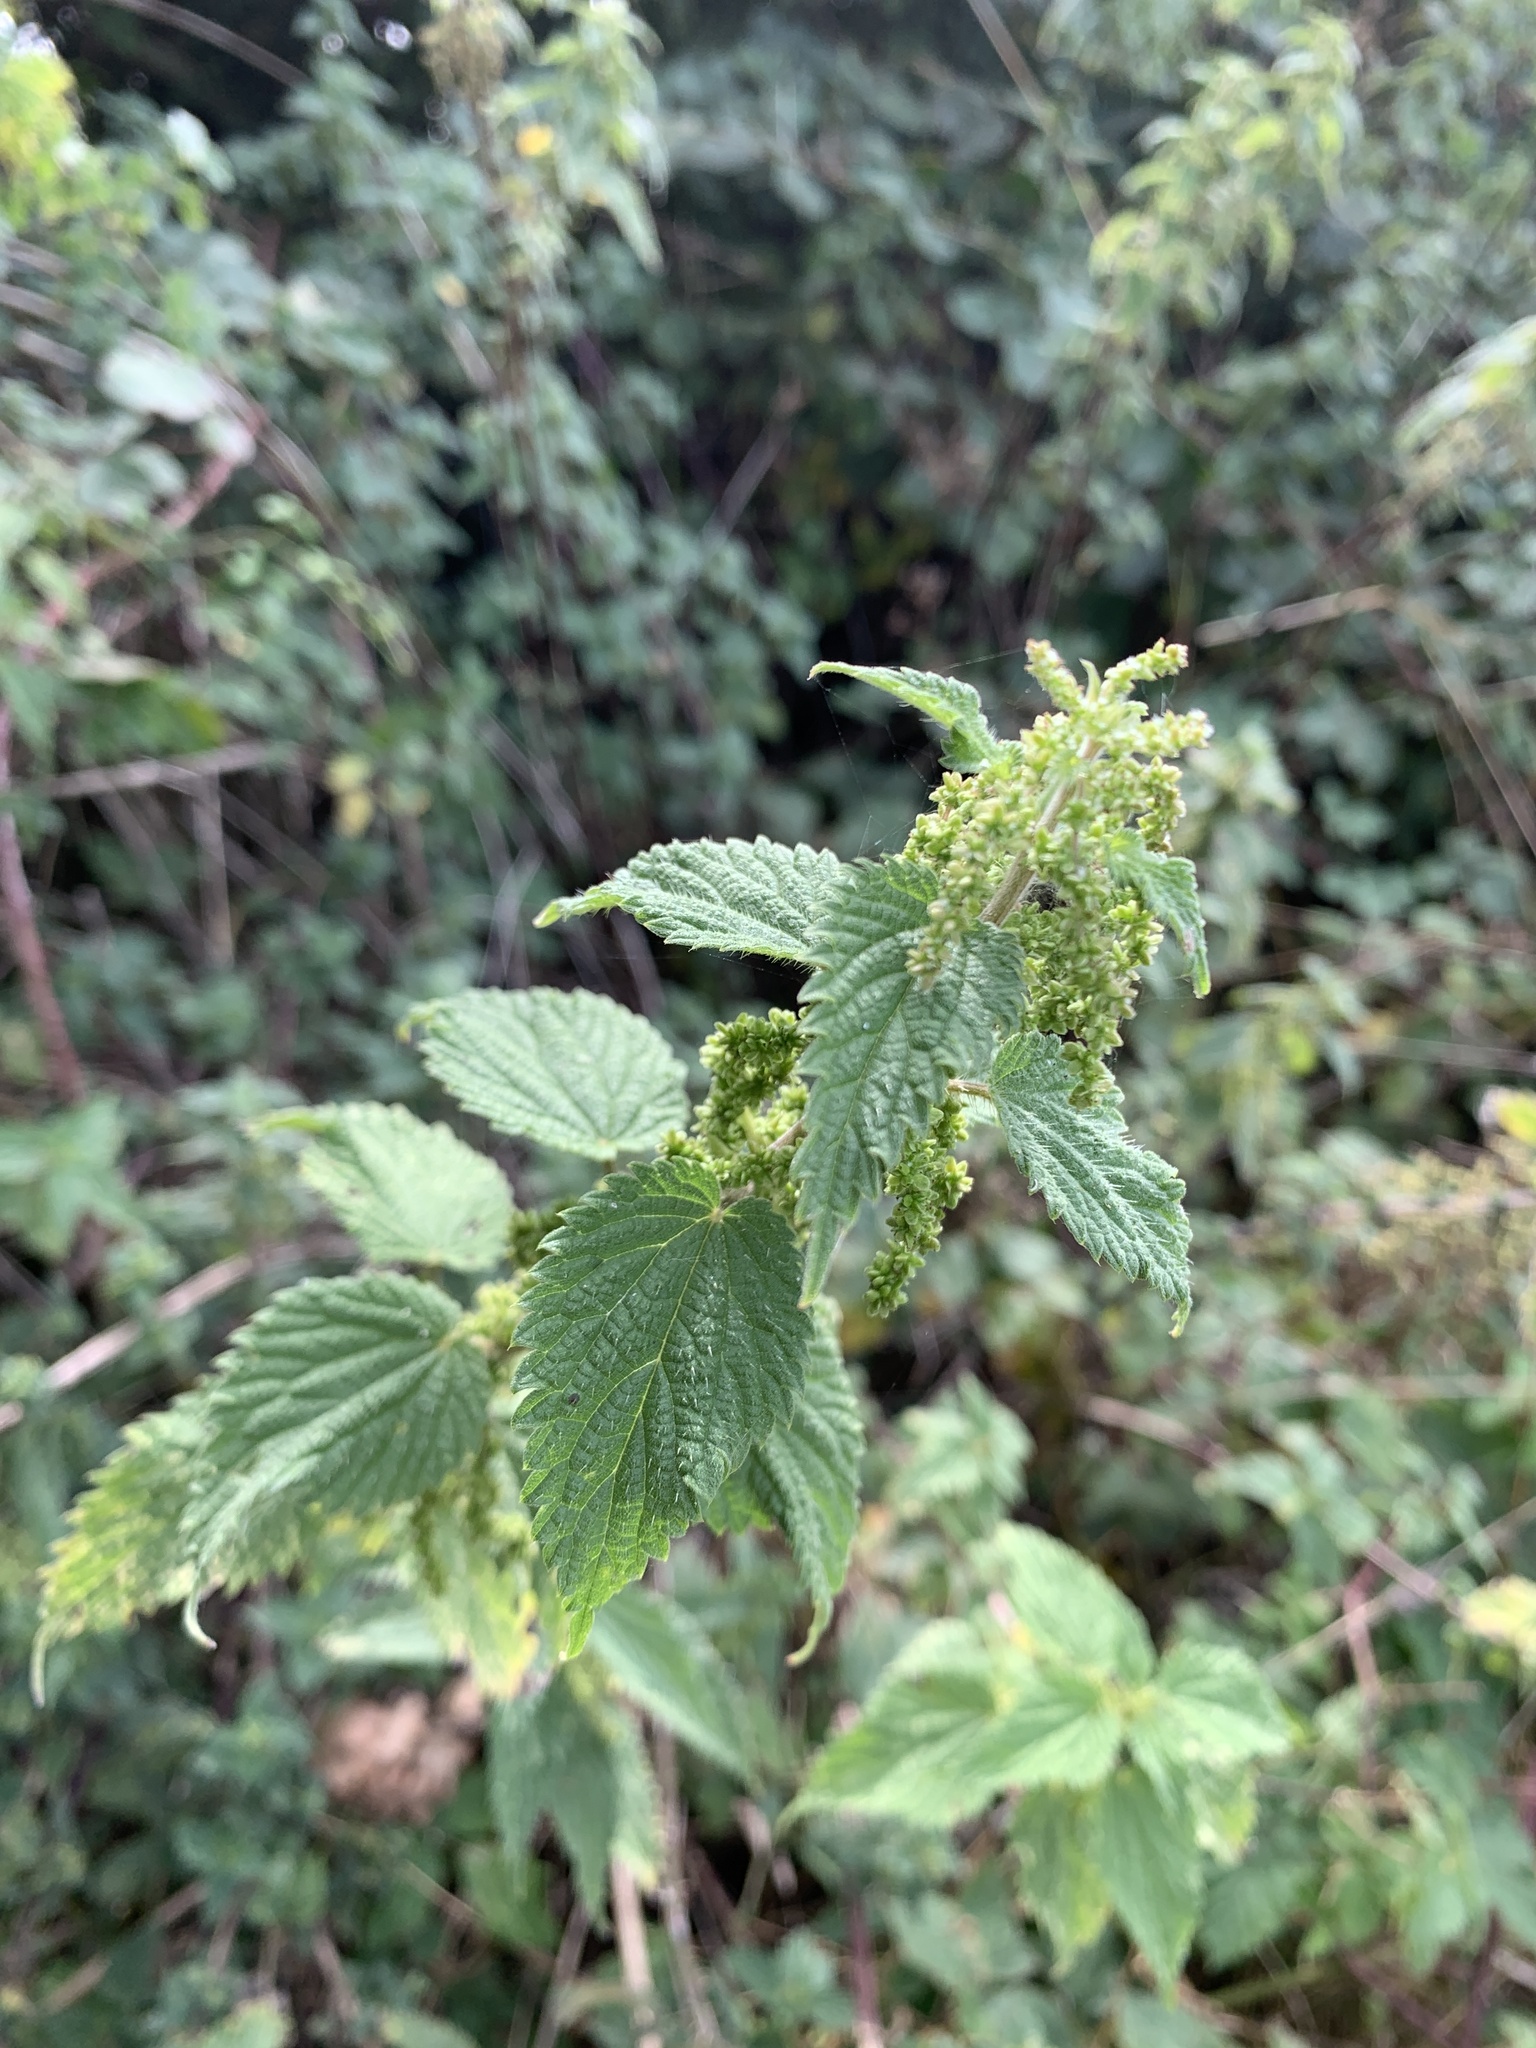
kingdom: Plantae
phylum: Tracheophyta
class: Magnoliopsida
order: Rosales
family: Urticaceae
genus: Urtica
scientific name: Urtica dioica
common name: Common nettle
